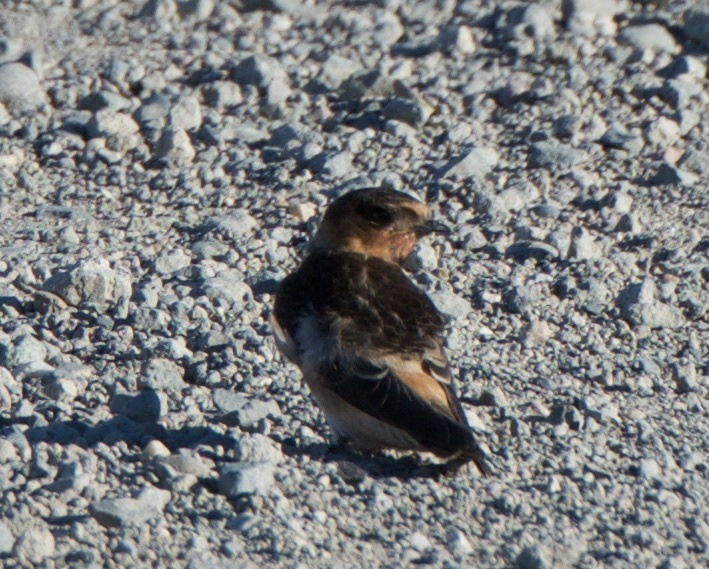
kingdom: Animalia
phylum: Chordata
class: Aves
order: Passeriformes
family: Hirundinidae
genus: Petrochelidon
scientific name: Petrochelidon pyrrhonota
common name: American cliff swallow
